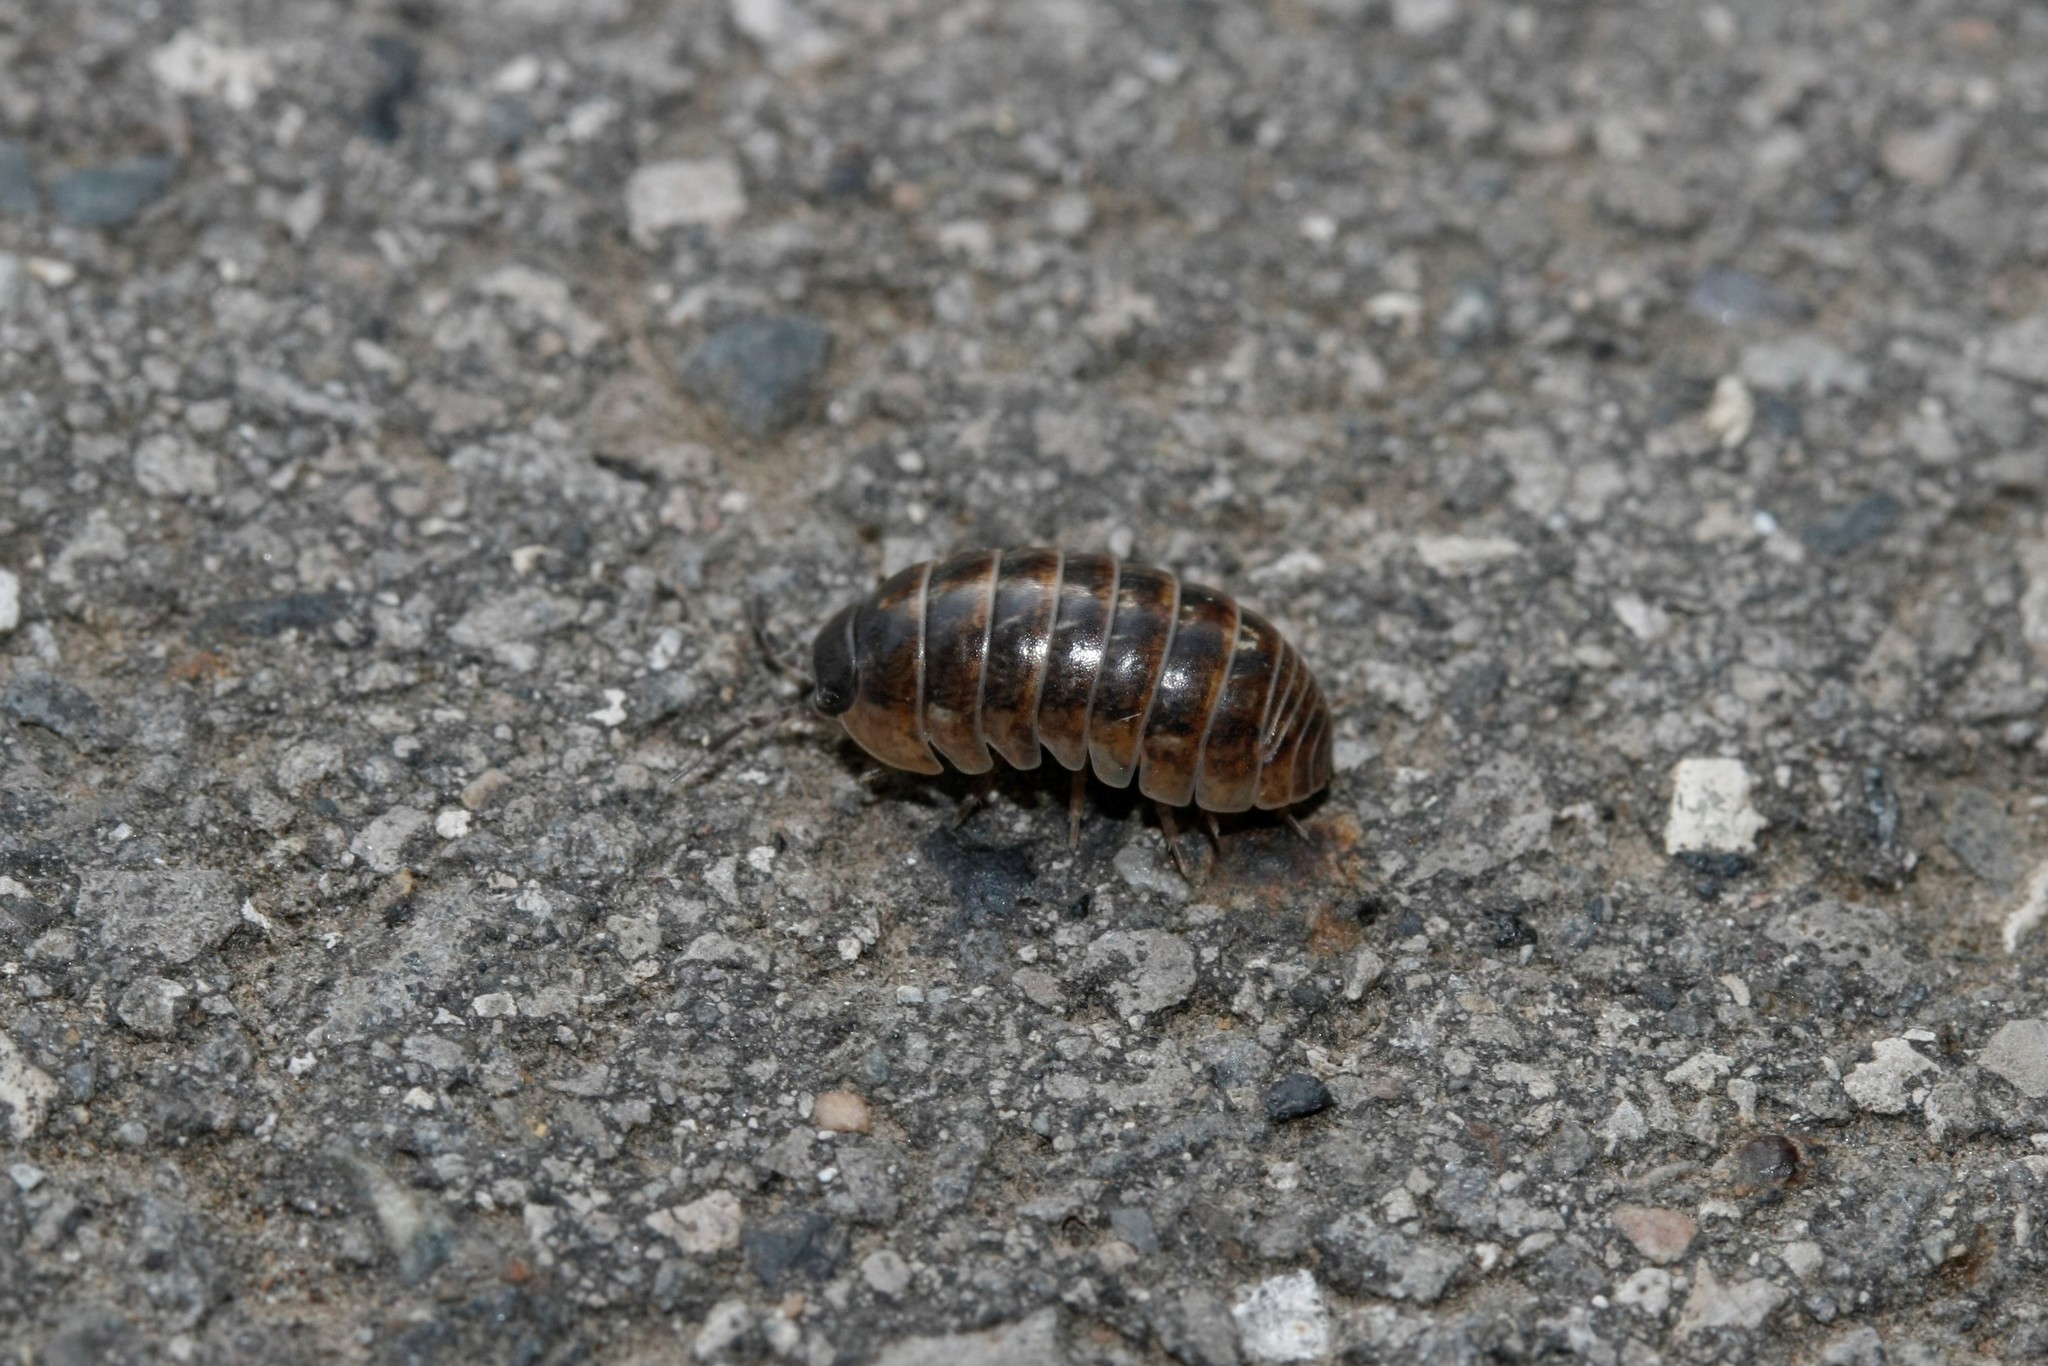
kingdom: Animalia
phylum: Arthropoda
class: Malacostraca
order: Isopoda
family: Armadillidiidae
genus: Armadillidium
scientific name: Armadillidium vulgare
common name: Common pill woodlouse
